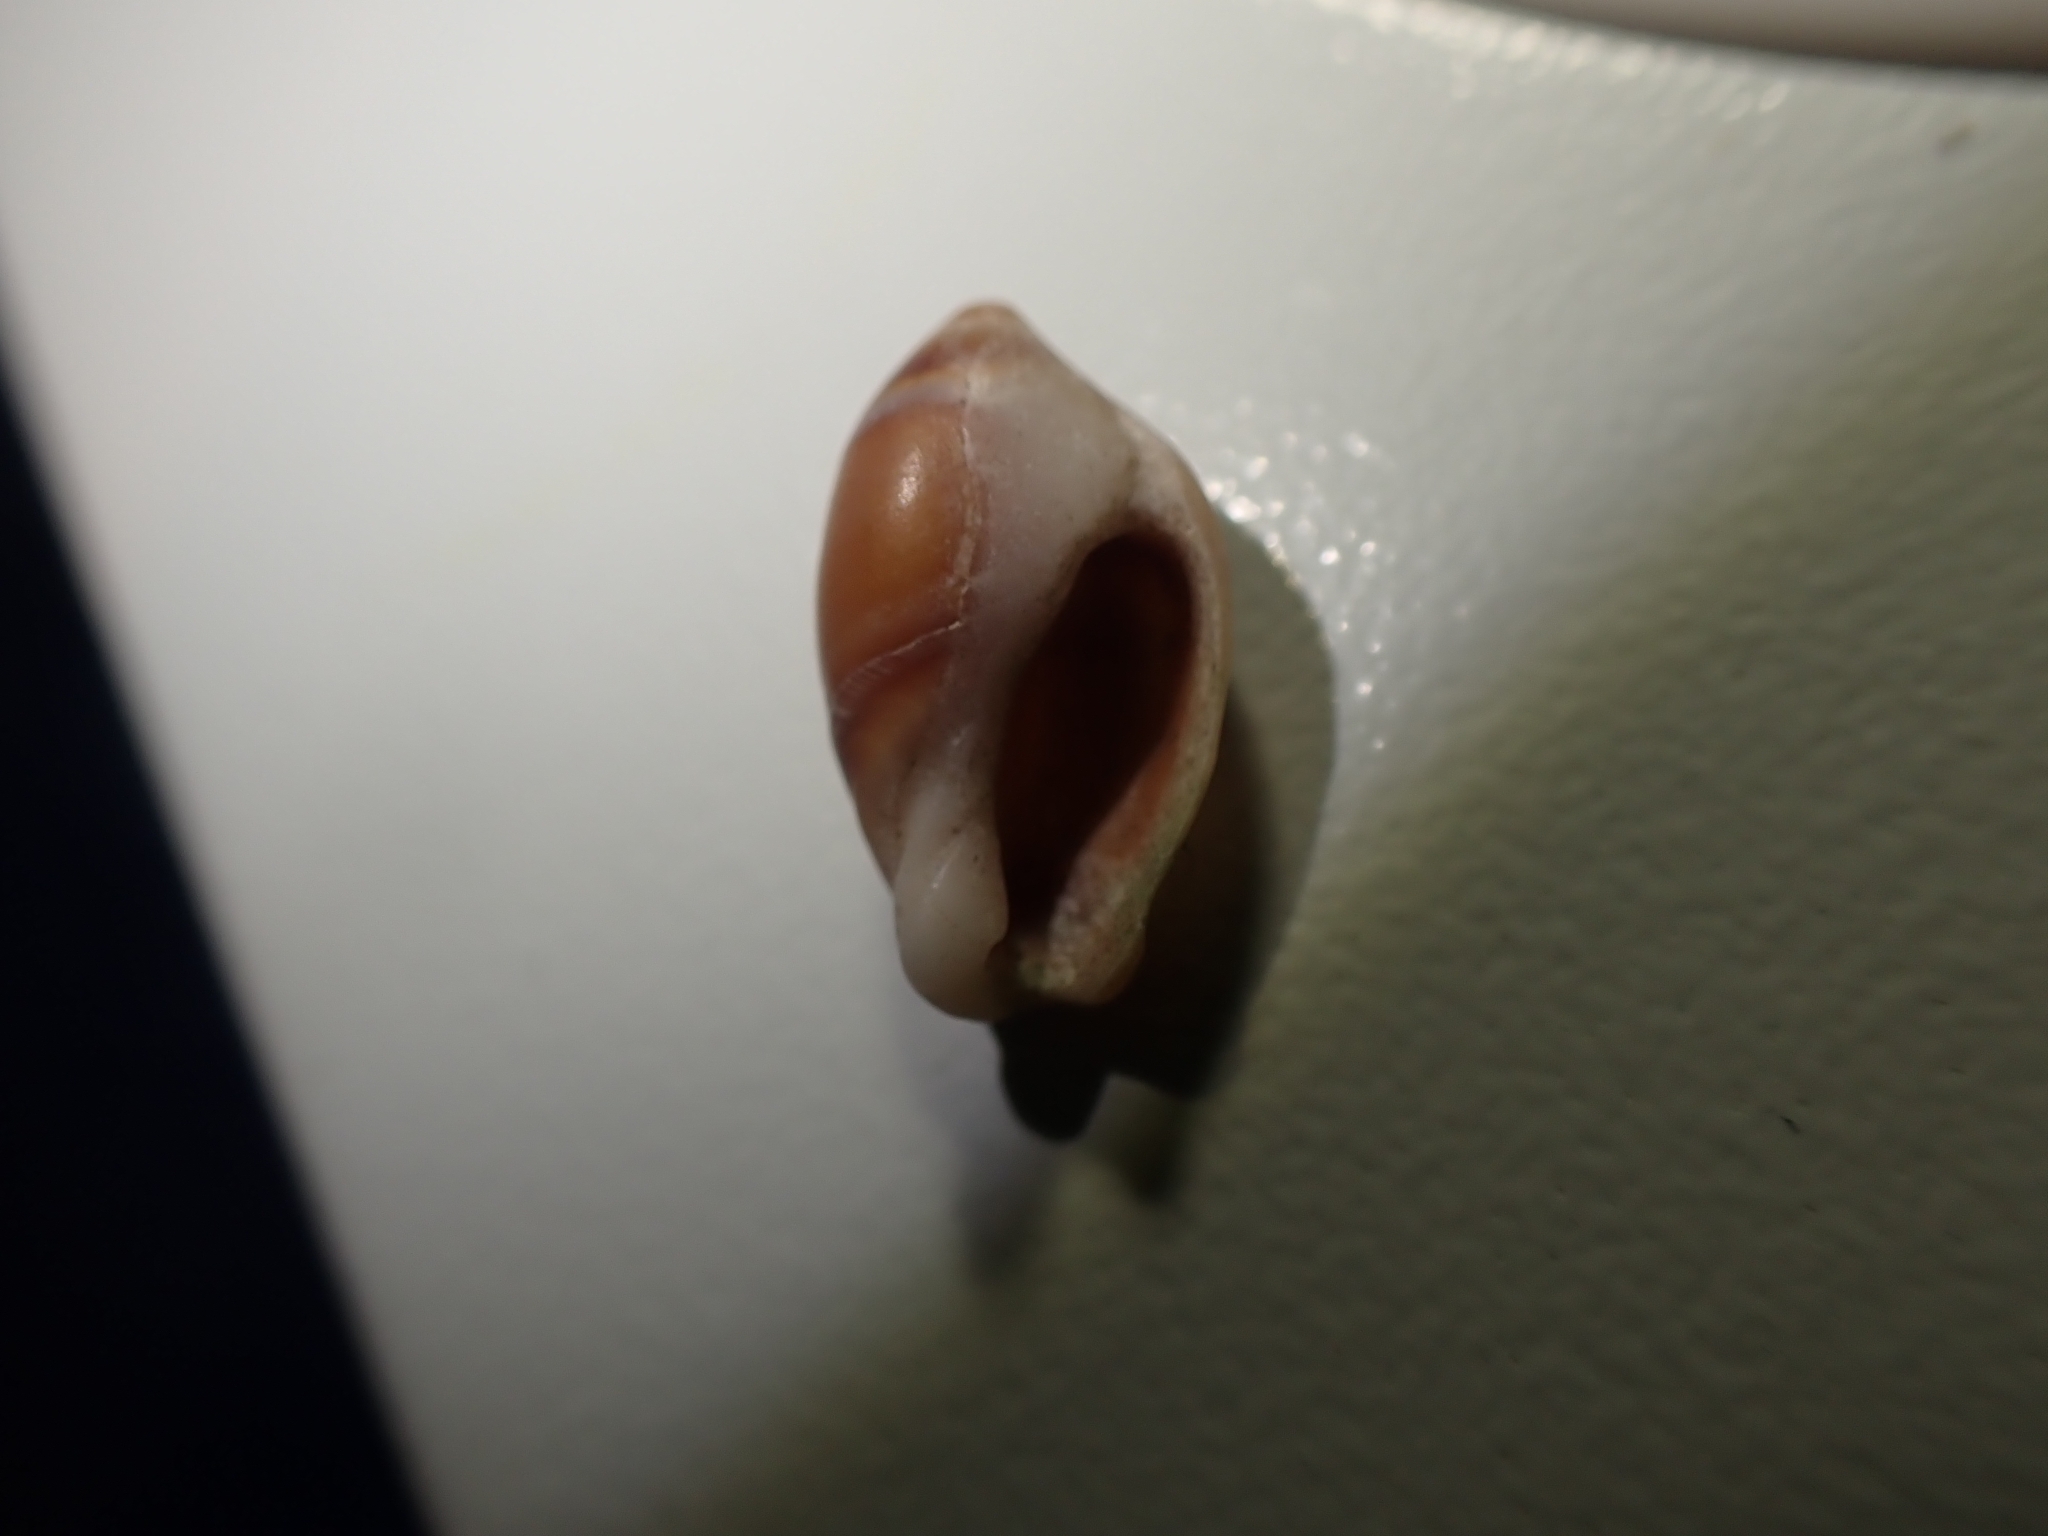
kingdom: Animalia
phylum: Mollusca
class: Gastropoda
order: Neogastropoda
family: Ancillariidae
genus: Amalda
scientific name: Amalda depressa
